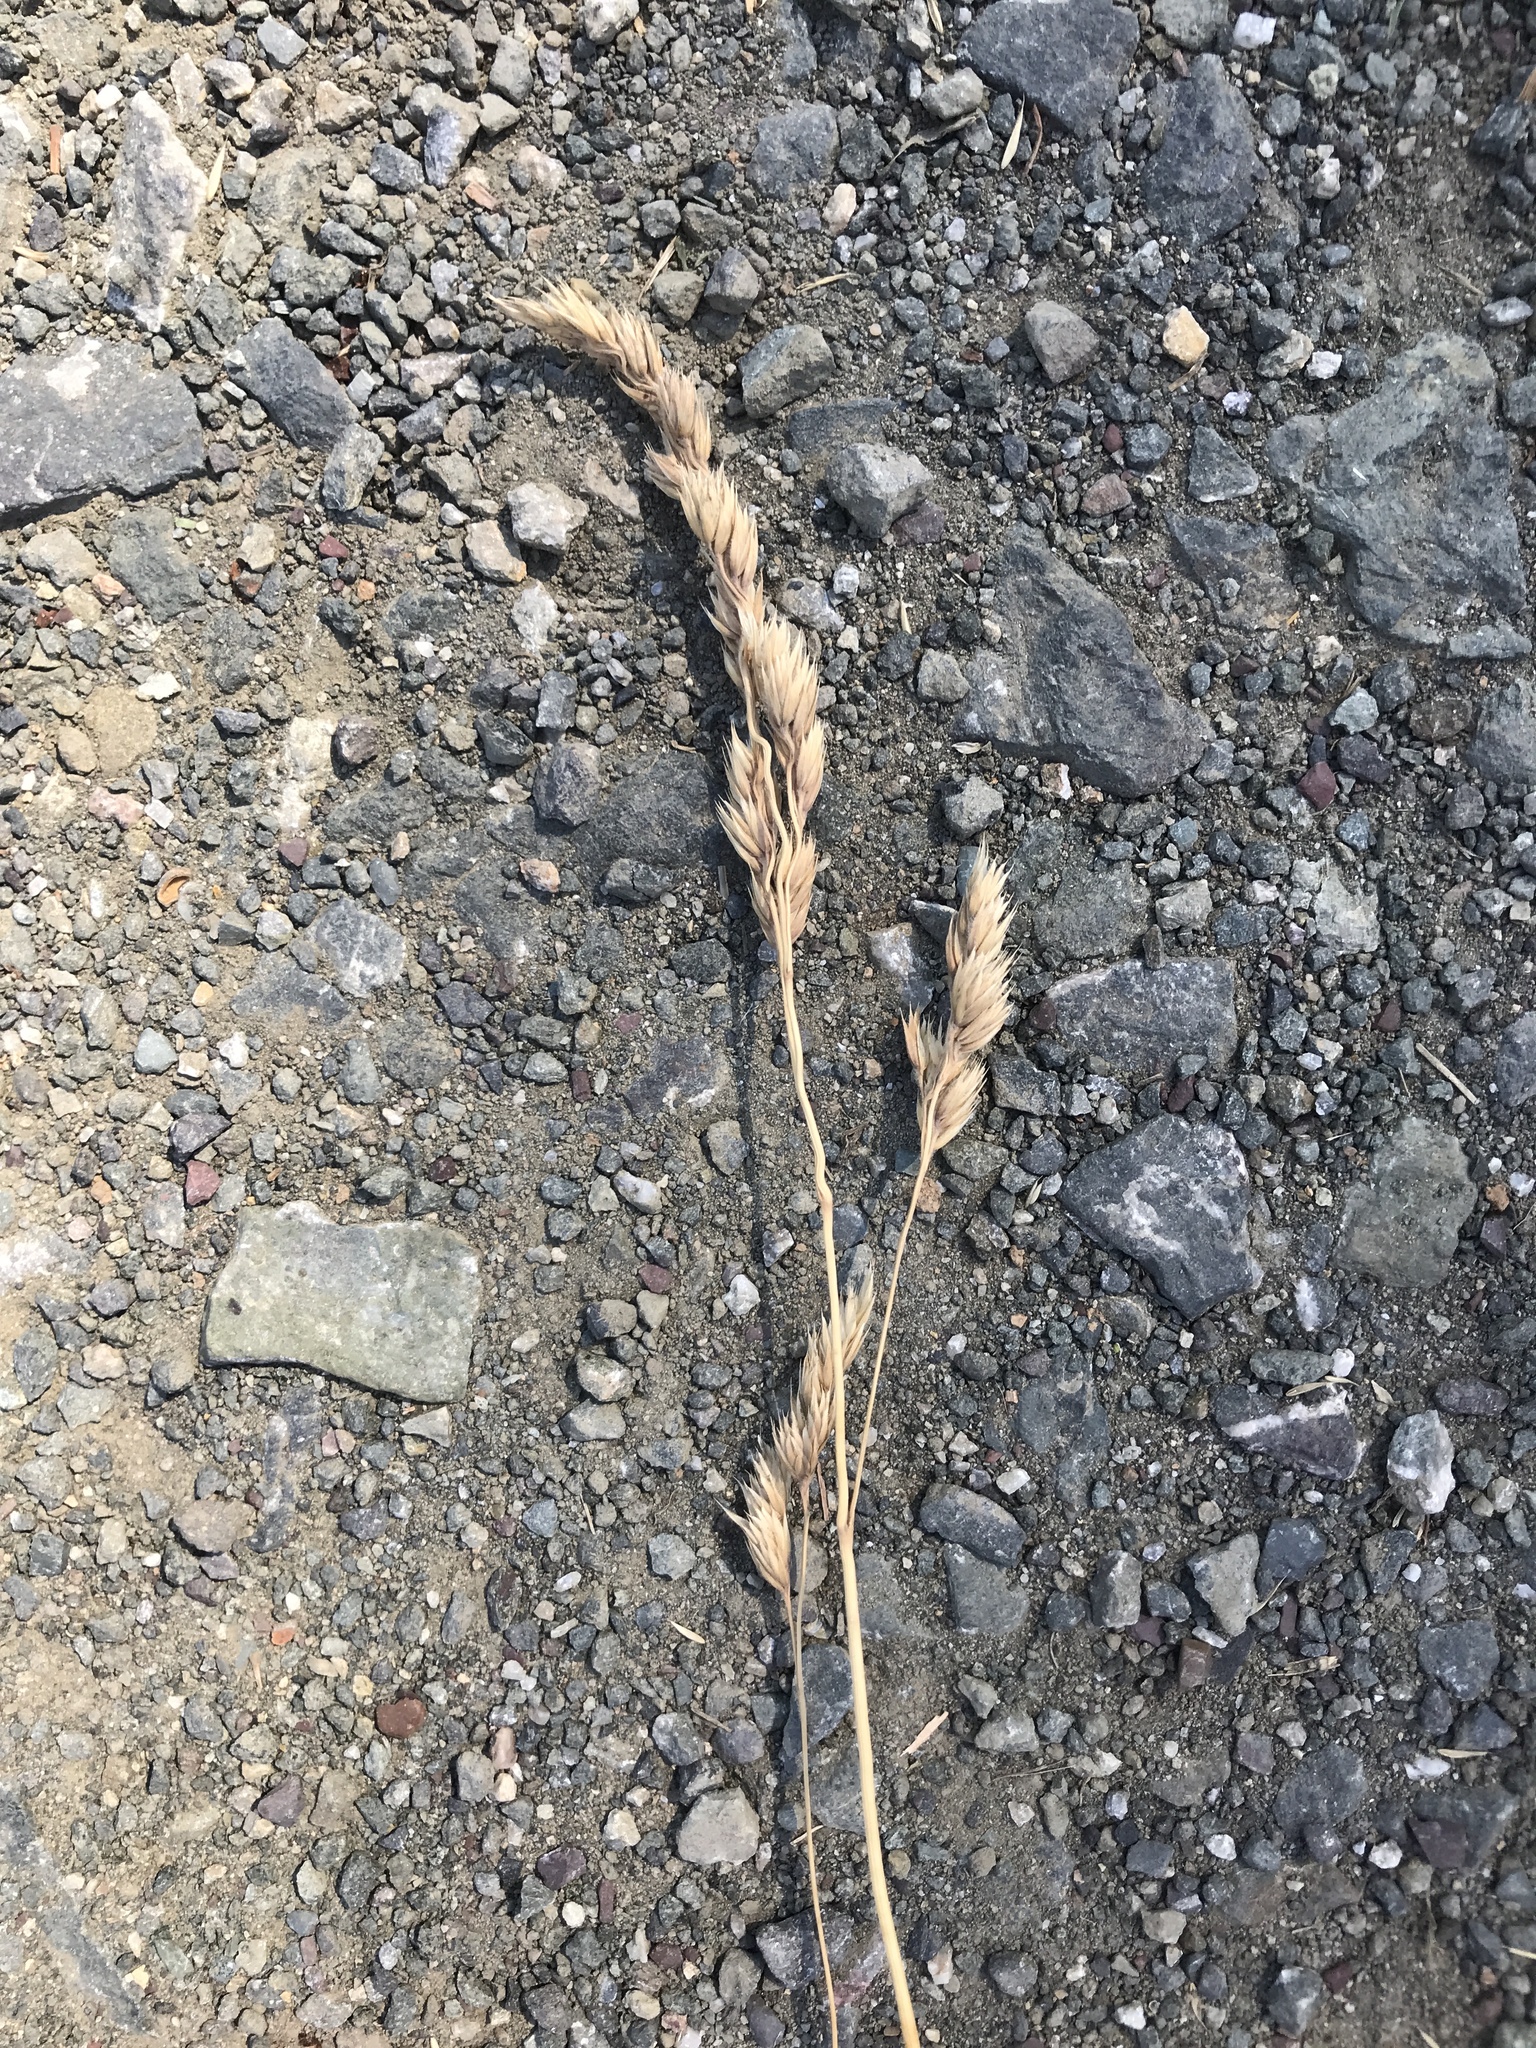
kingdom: Plantae
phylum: Tracheophyta
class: Liliopsida
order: Poales
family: Poaceae
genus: Dactylis
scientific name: Dactylis glomerata
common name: Orchardgrass
